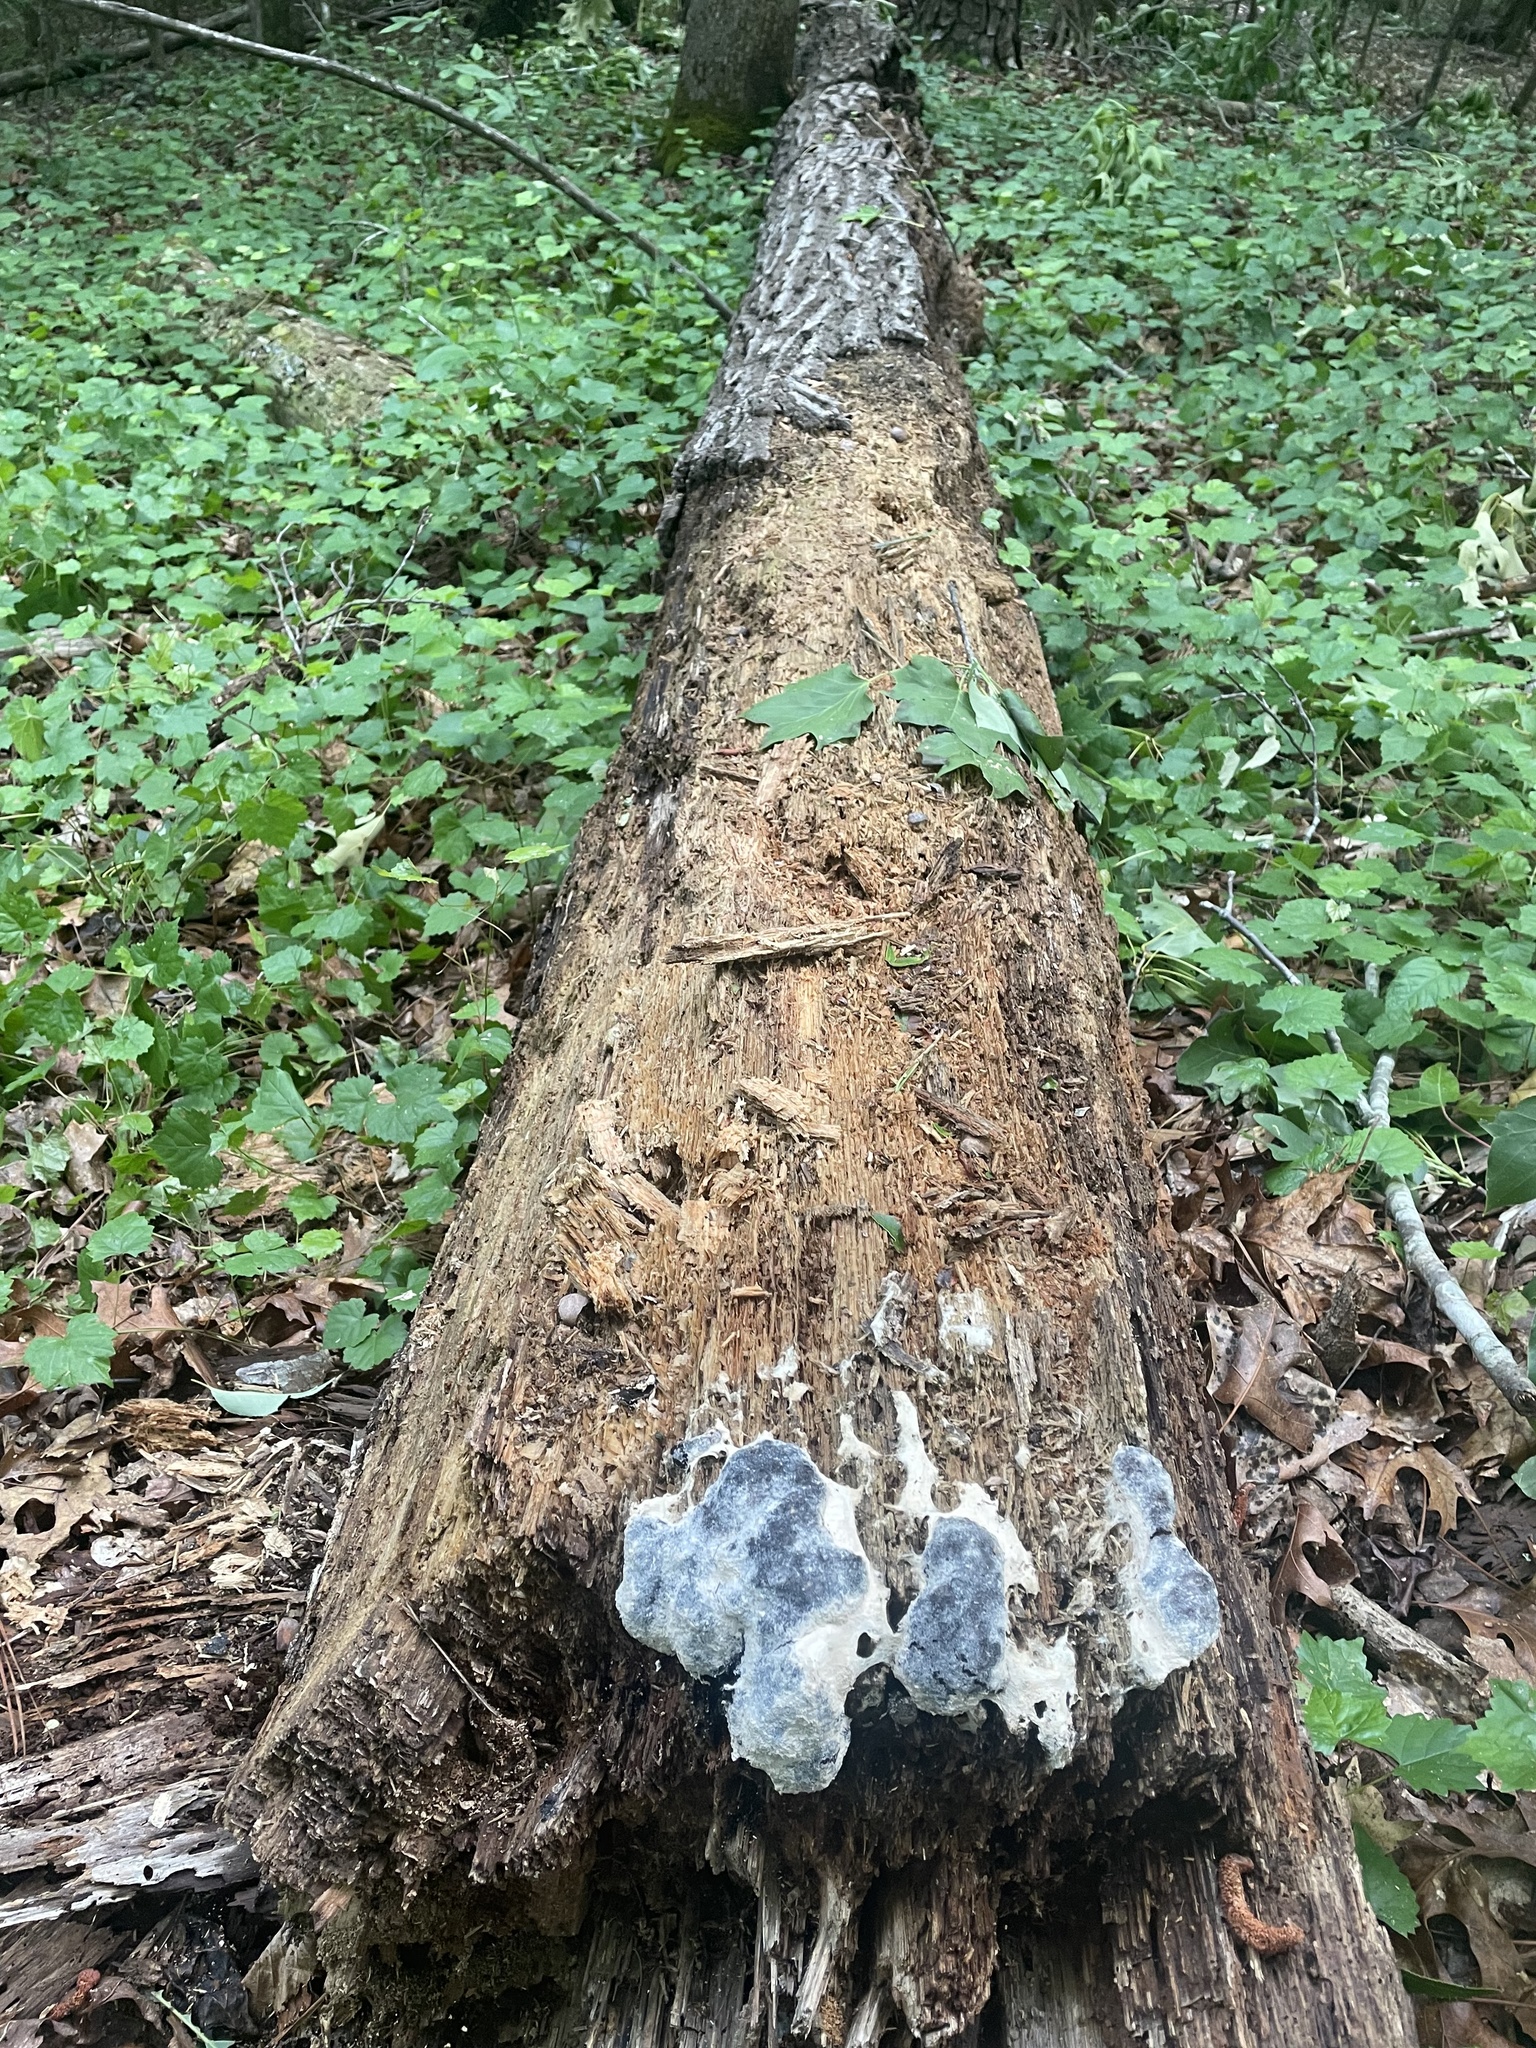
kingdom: Protozoa
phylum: Mycetozoa
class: Myxomycetes
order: Physarales
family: Physaraceae
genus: Fuligo
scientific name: Fuligo septica
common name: Dog vomit slime mold
